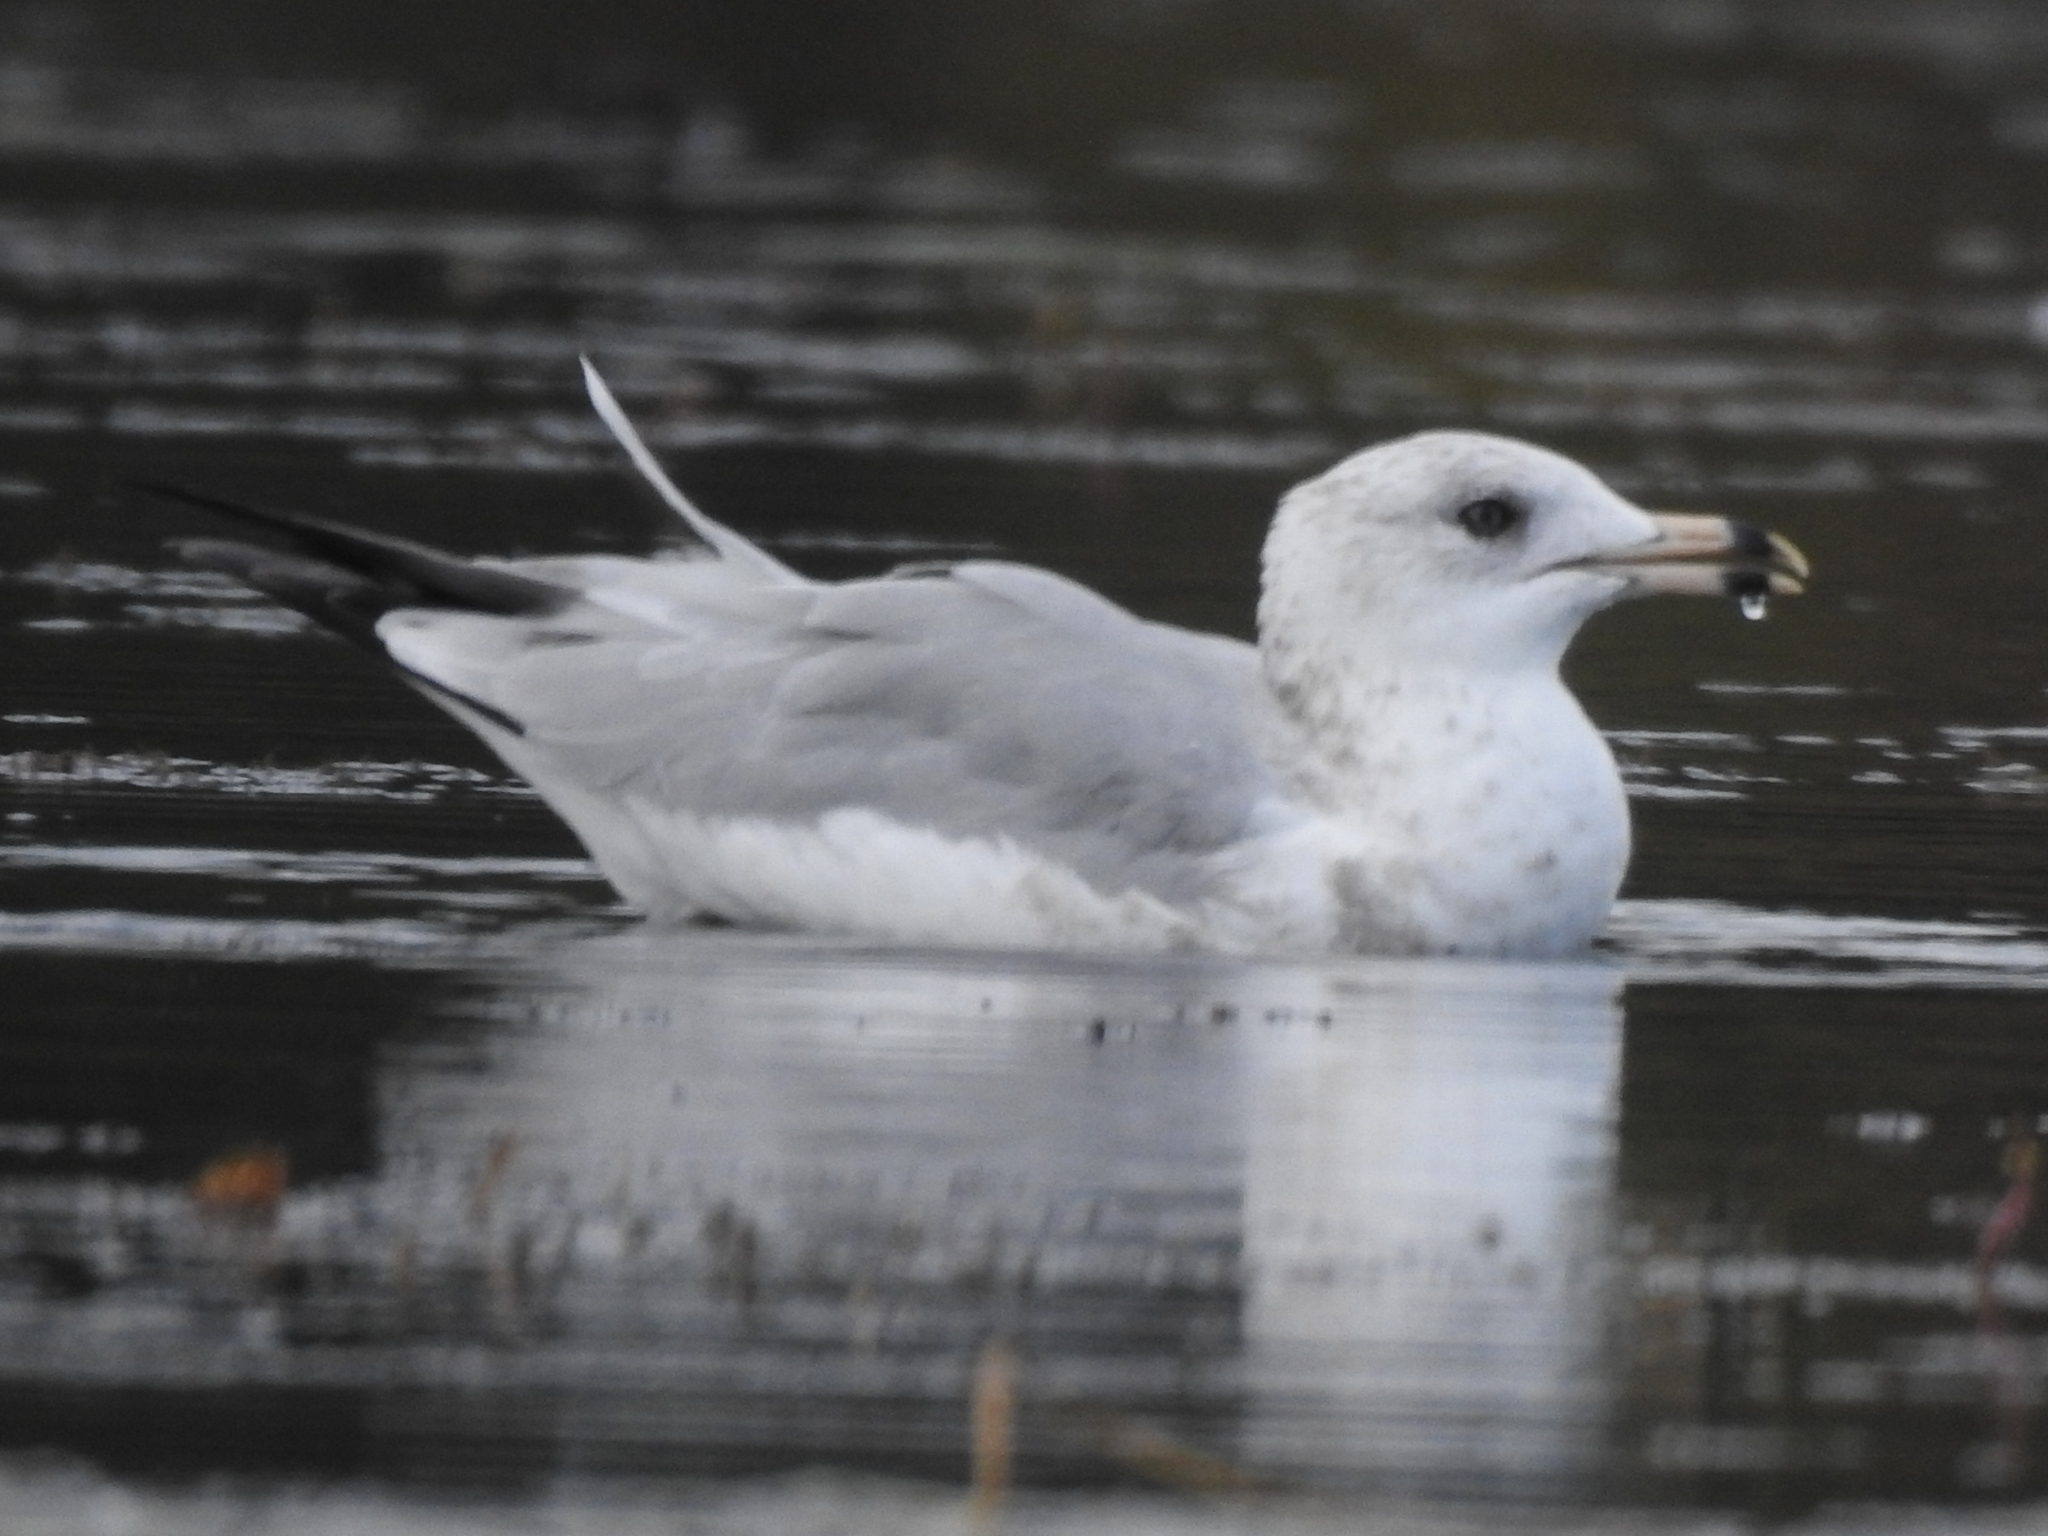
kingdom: Animalia
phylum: Chordata
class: Aves
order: Charadriiformes
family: Laridae
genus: Larus
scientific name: Larus delawarensis
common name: Ring-billed gull
